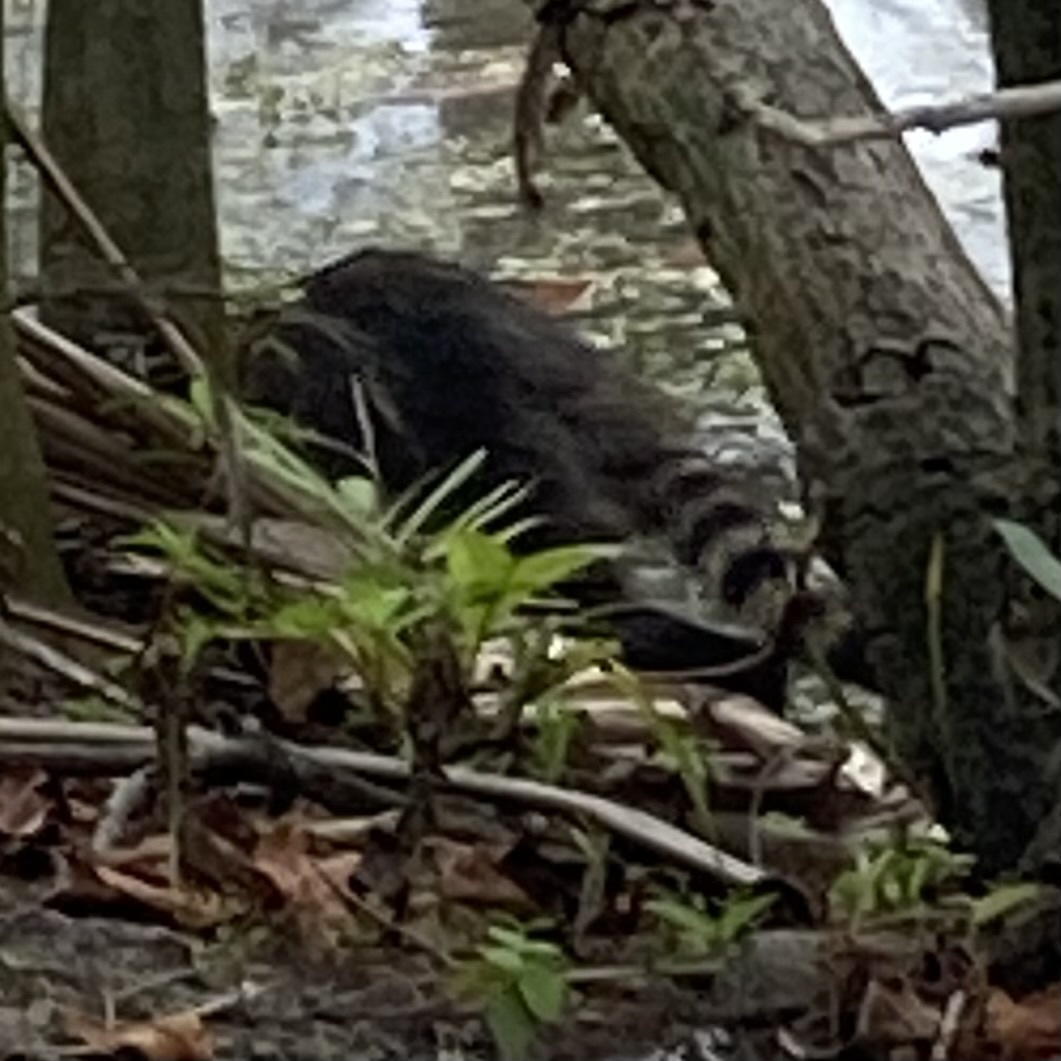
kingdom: Animalia
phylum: Chordata
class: Mammalia
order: Carnivora
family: Procyonidae
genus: Procyon
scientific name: Procyon lotor
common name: Raccoon
